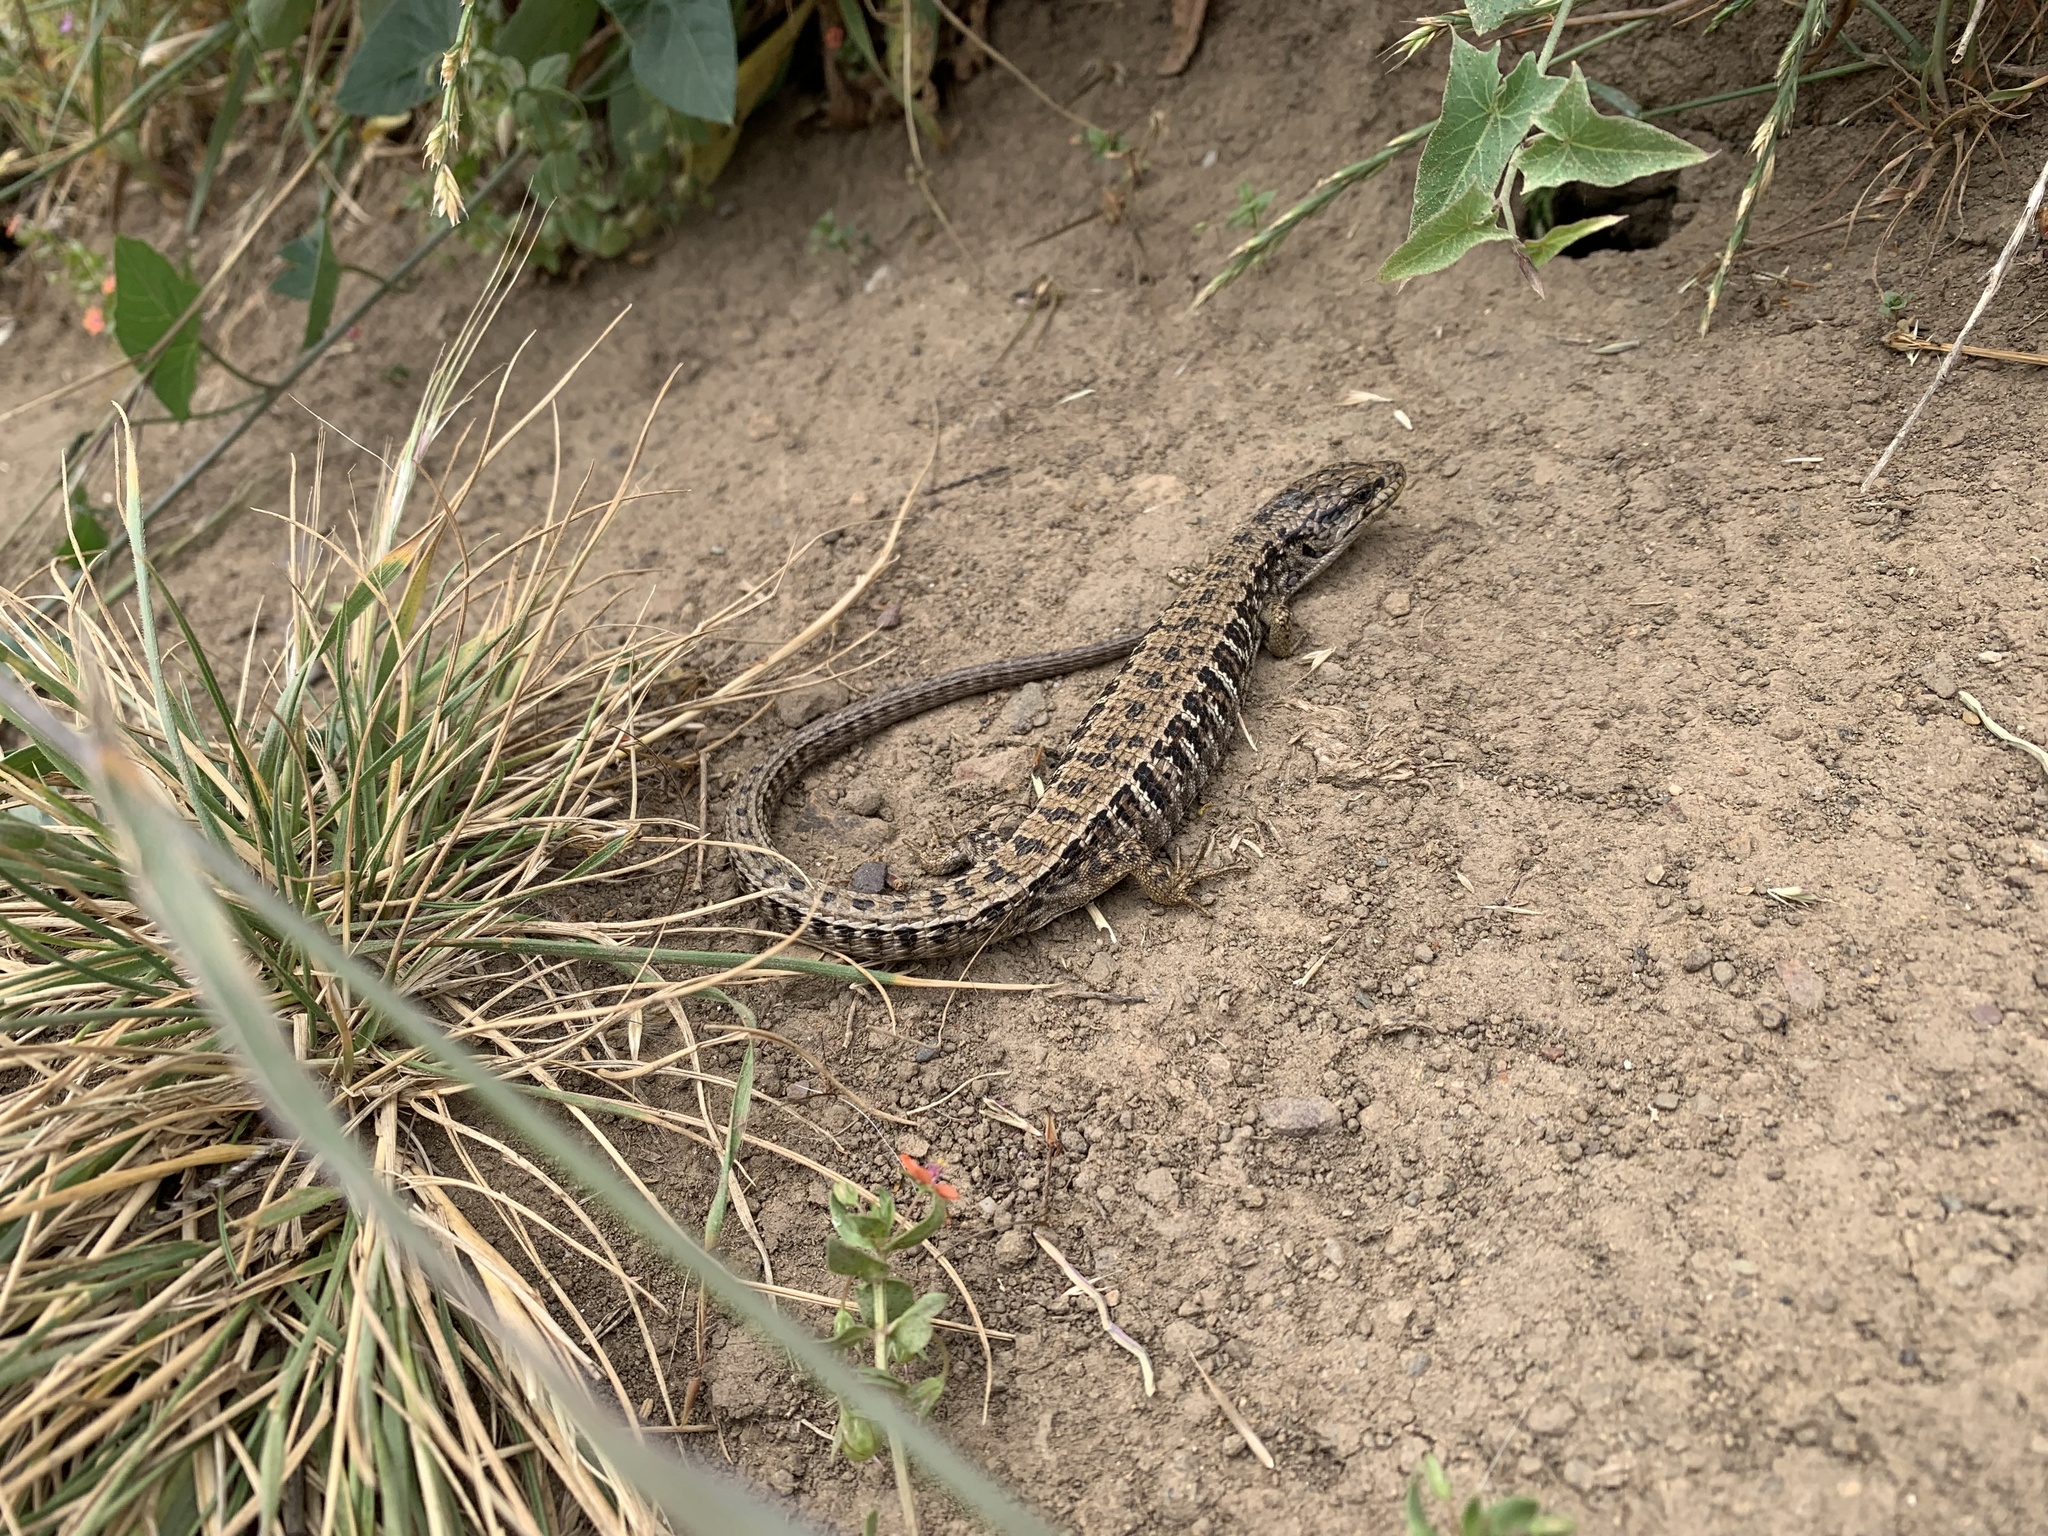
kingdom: Animalia
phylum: Chordata
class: Squamata
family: Anguidae
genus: Elgaria
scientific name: Elgaria coerulea
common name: Northern alligator lizard
